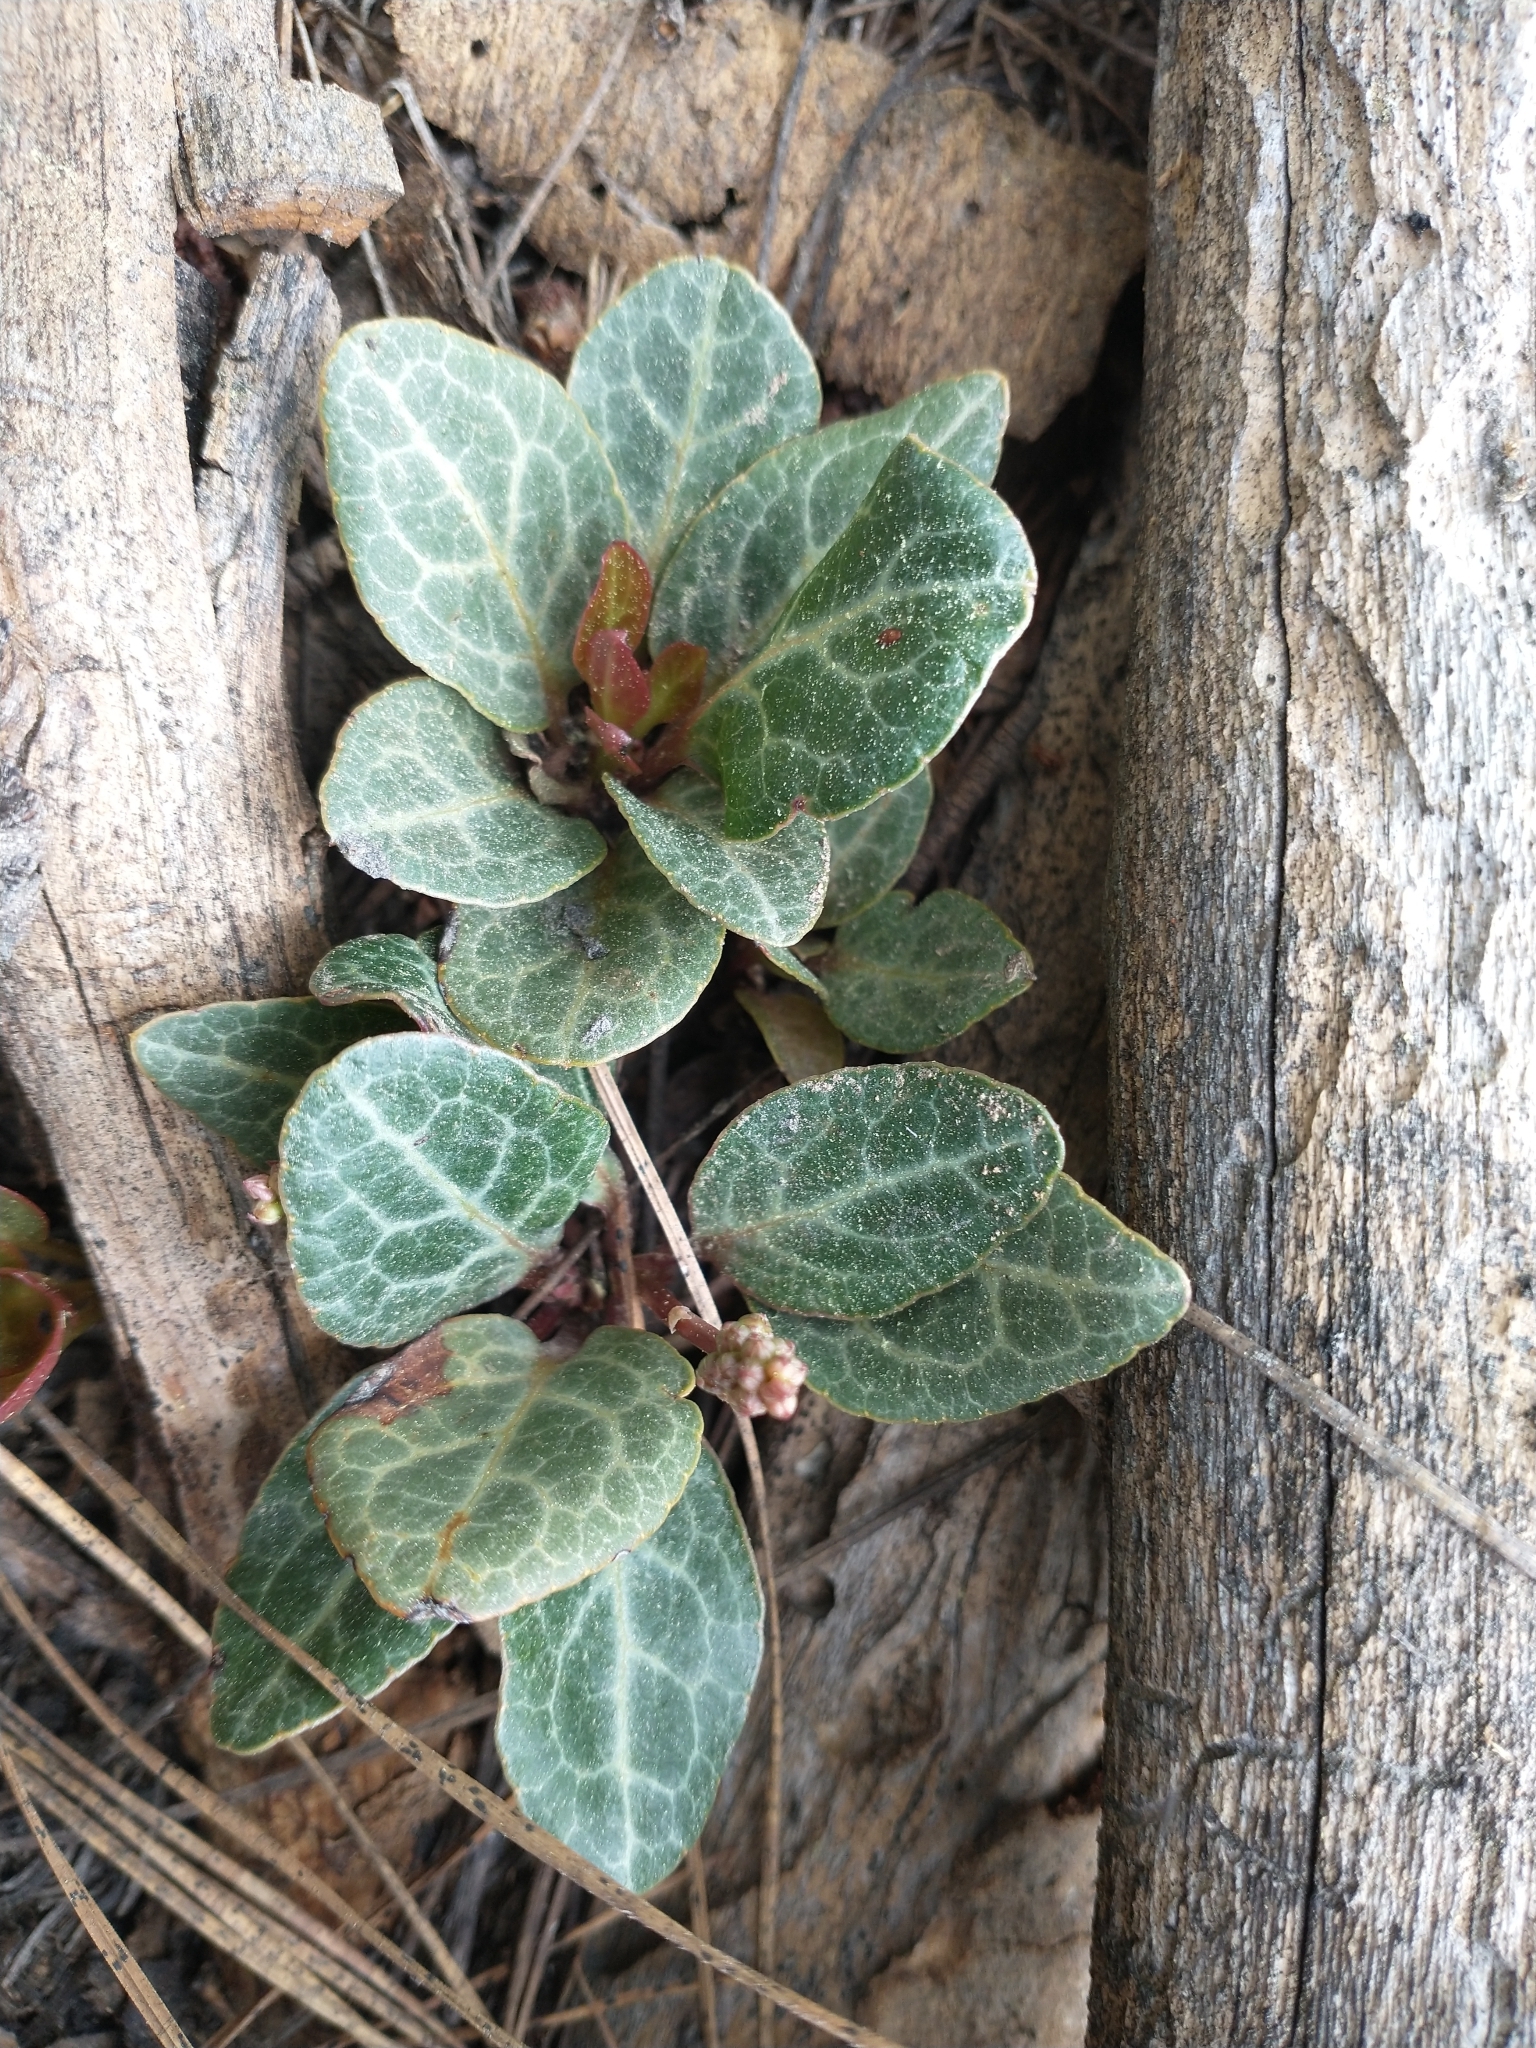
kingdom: Plantae
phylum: Tracheophyta
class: Magnoliopsida
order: Ericales
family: Ericaceae
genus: Pyrola
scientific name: Pyrola picta
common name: White-vein wintergreen
